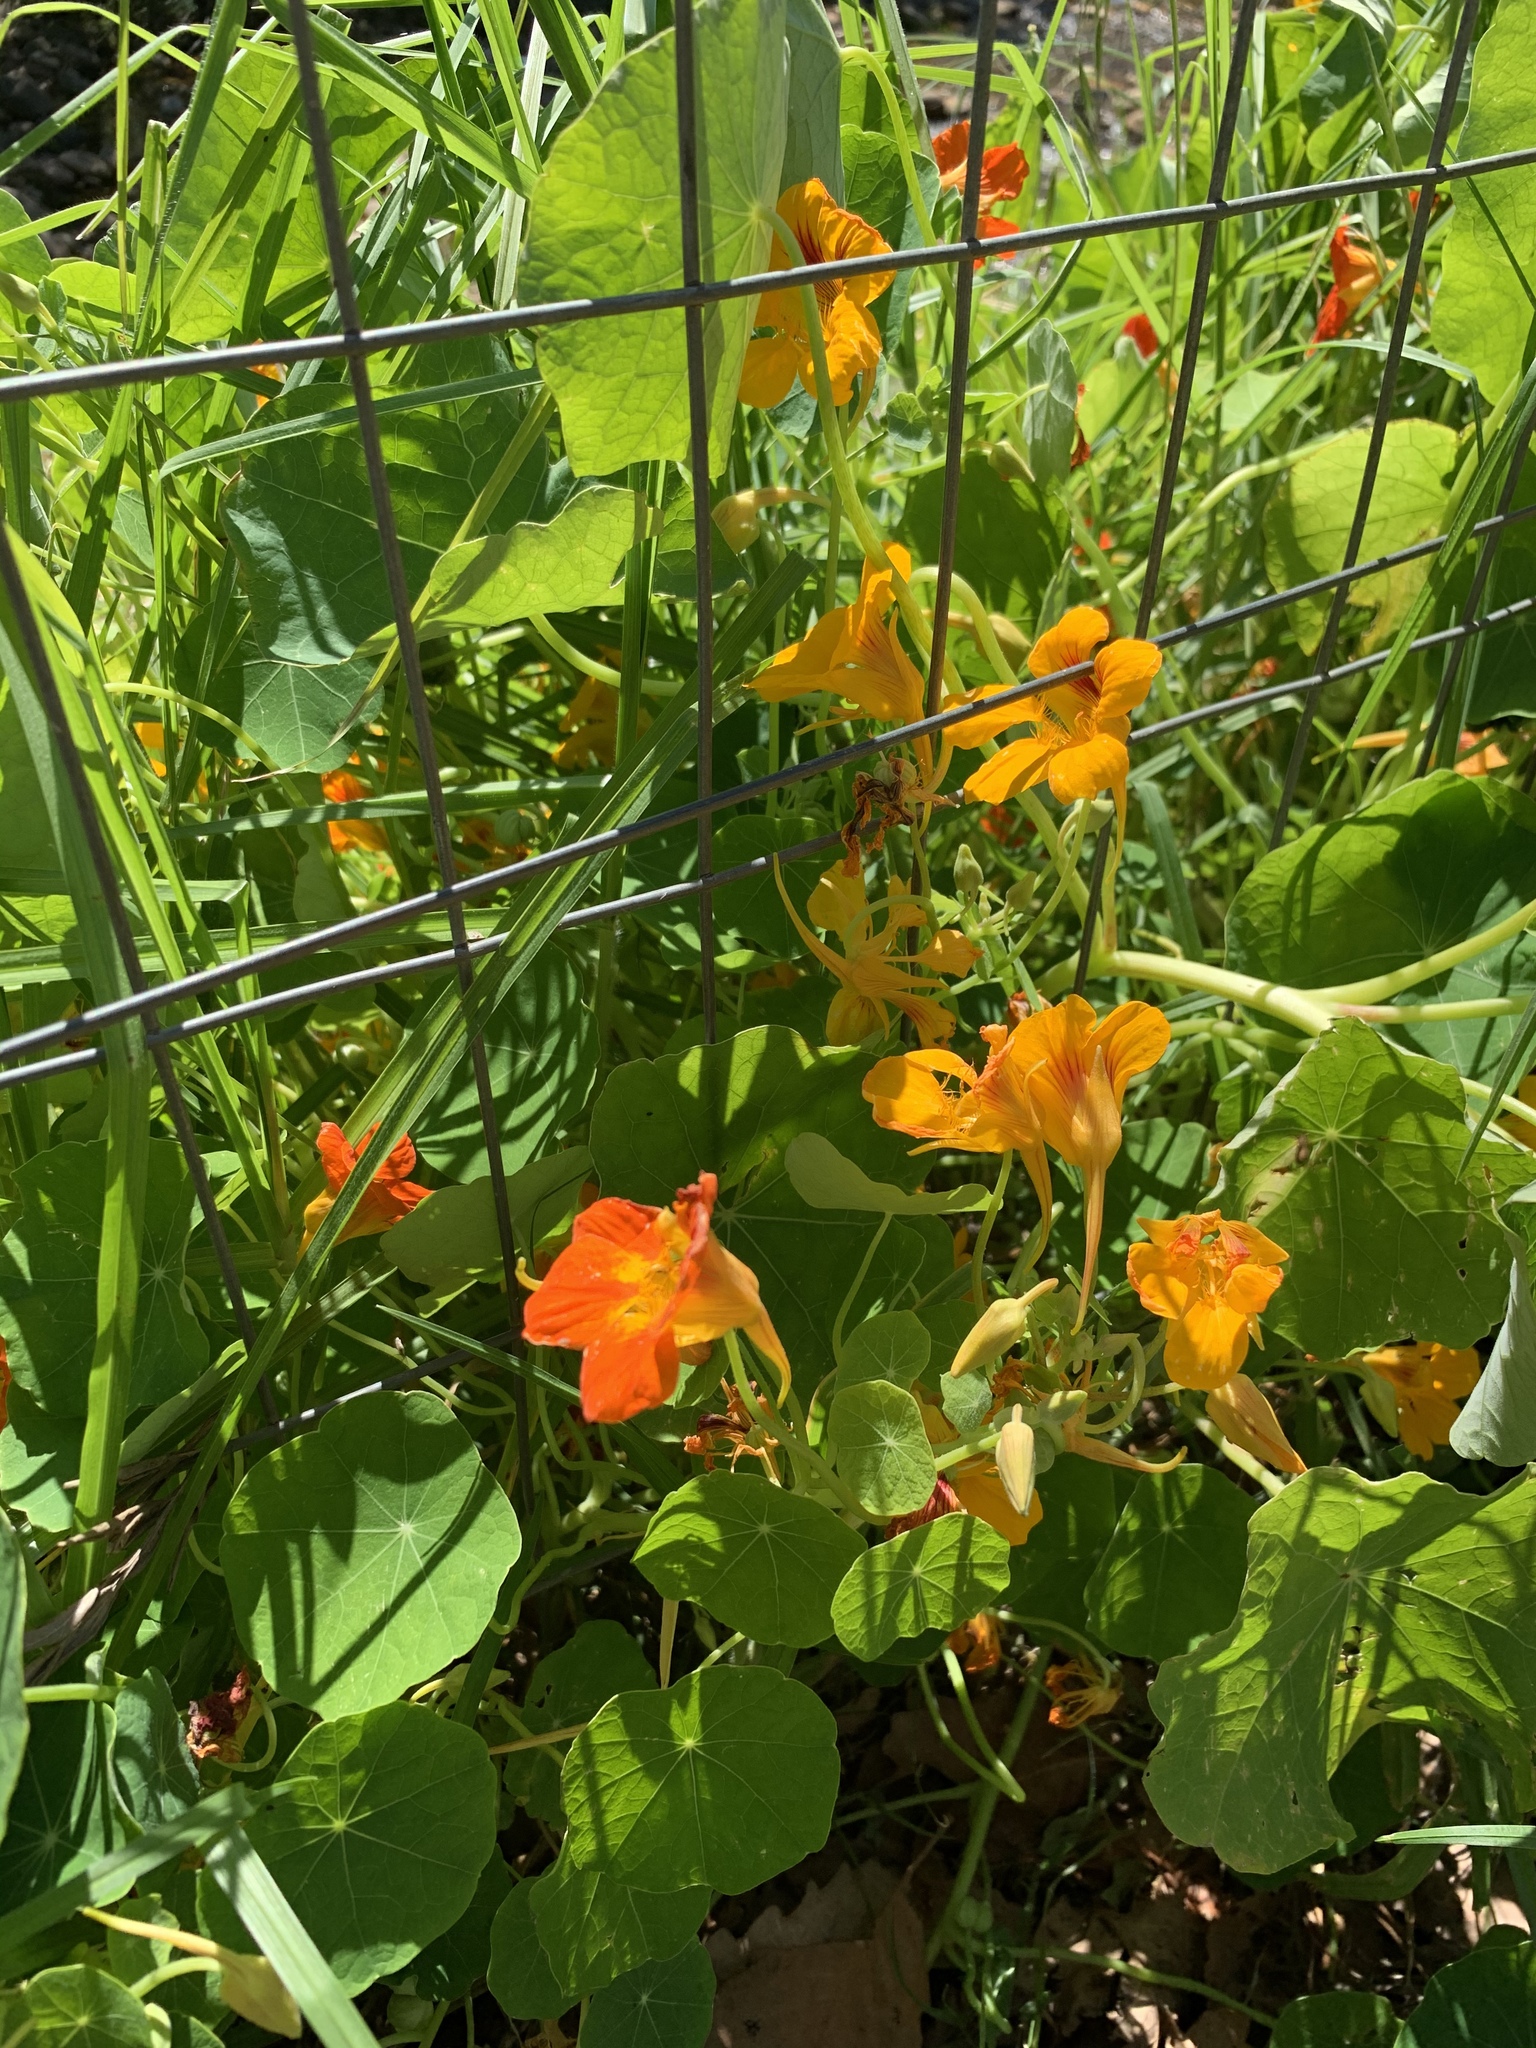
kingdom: Plantae
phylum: Tracheophyta
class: Magnoliopsida
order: Brassicales
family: Tropaeolaceae
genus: Tropaeolum
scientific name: Tropaeolum majus
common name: Nasturtium
